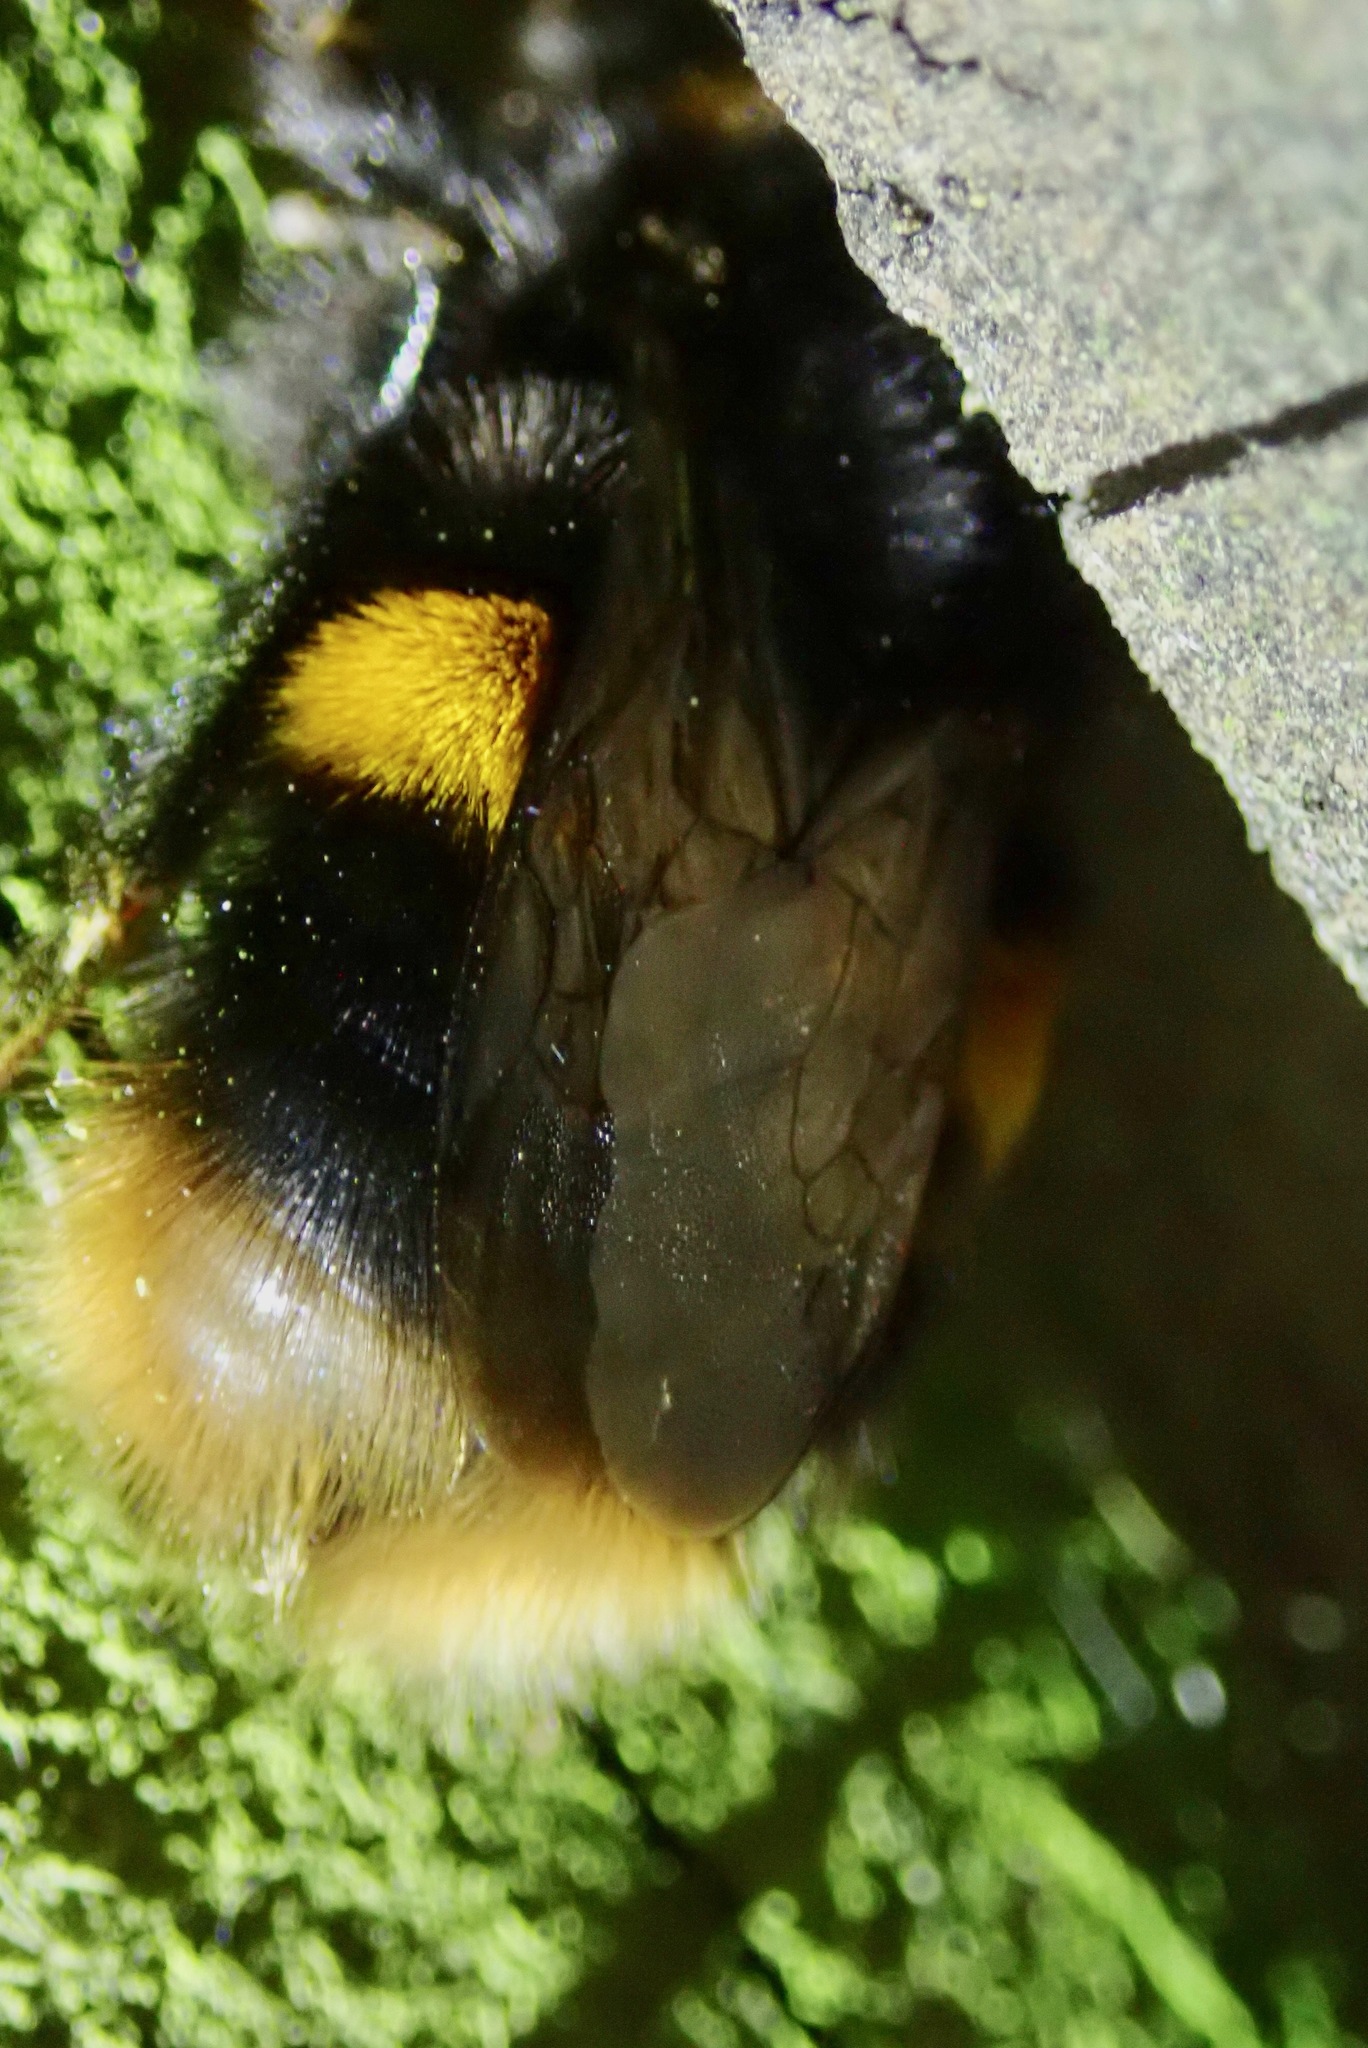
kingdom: Animalia
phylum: Arthropoda
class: Insecta
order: Hymenoptera
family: Apidae
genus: Bombus
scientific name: Bombus terrestris
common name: Buff-tailed bumblebee
